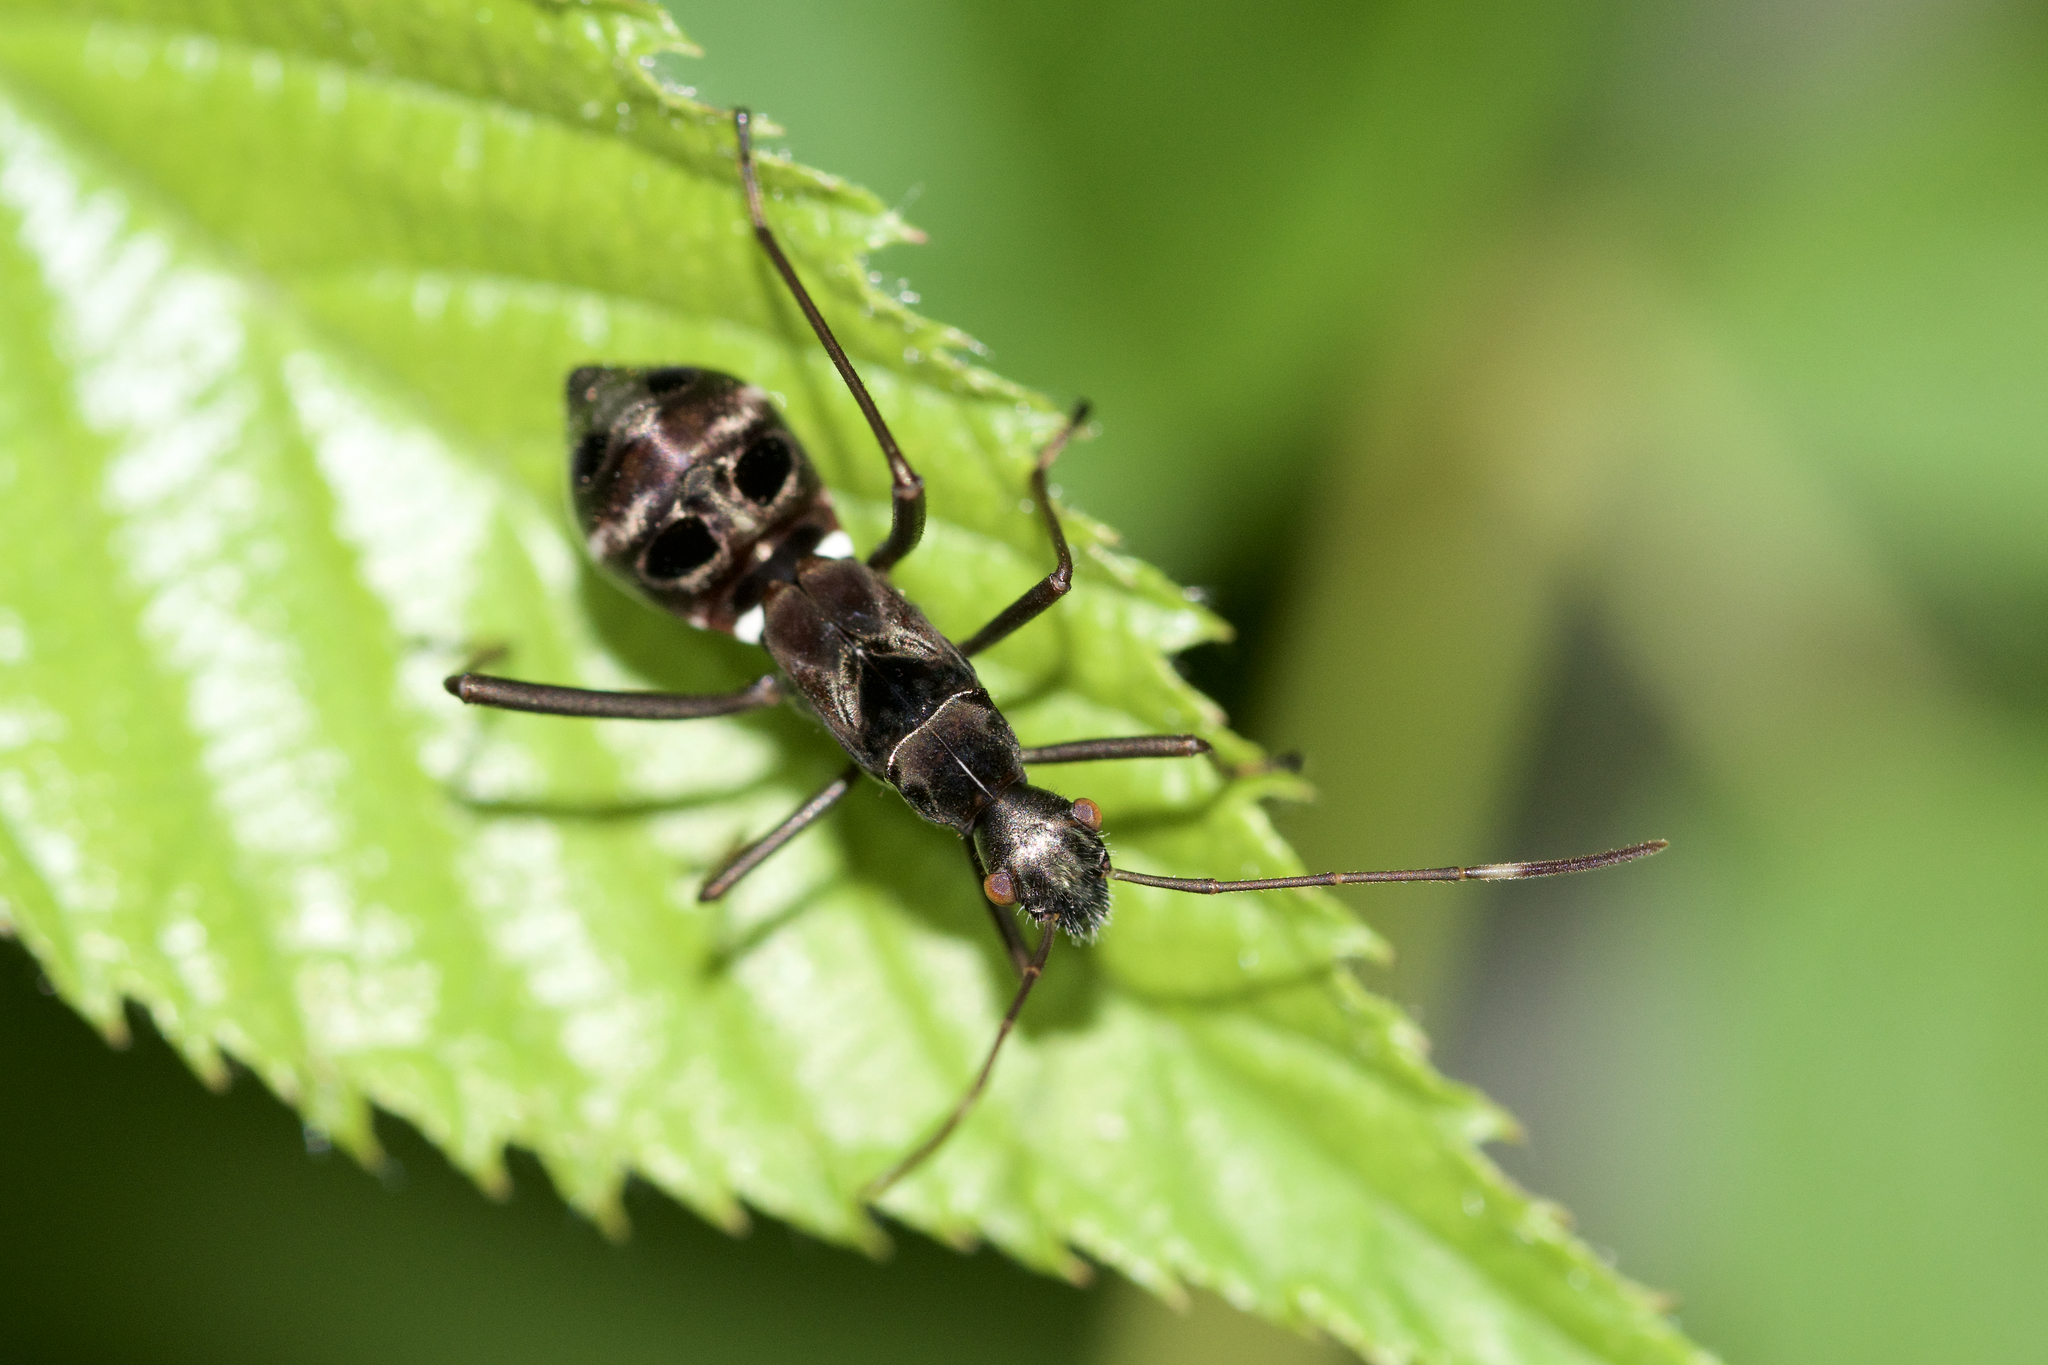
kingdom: Animalia
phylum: Arthropoda
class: Insecta
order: Hemiptera
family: Alydidae
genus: Alydus
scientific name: Alydus eurinus
